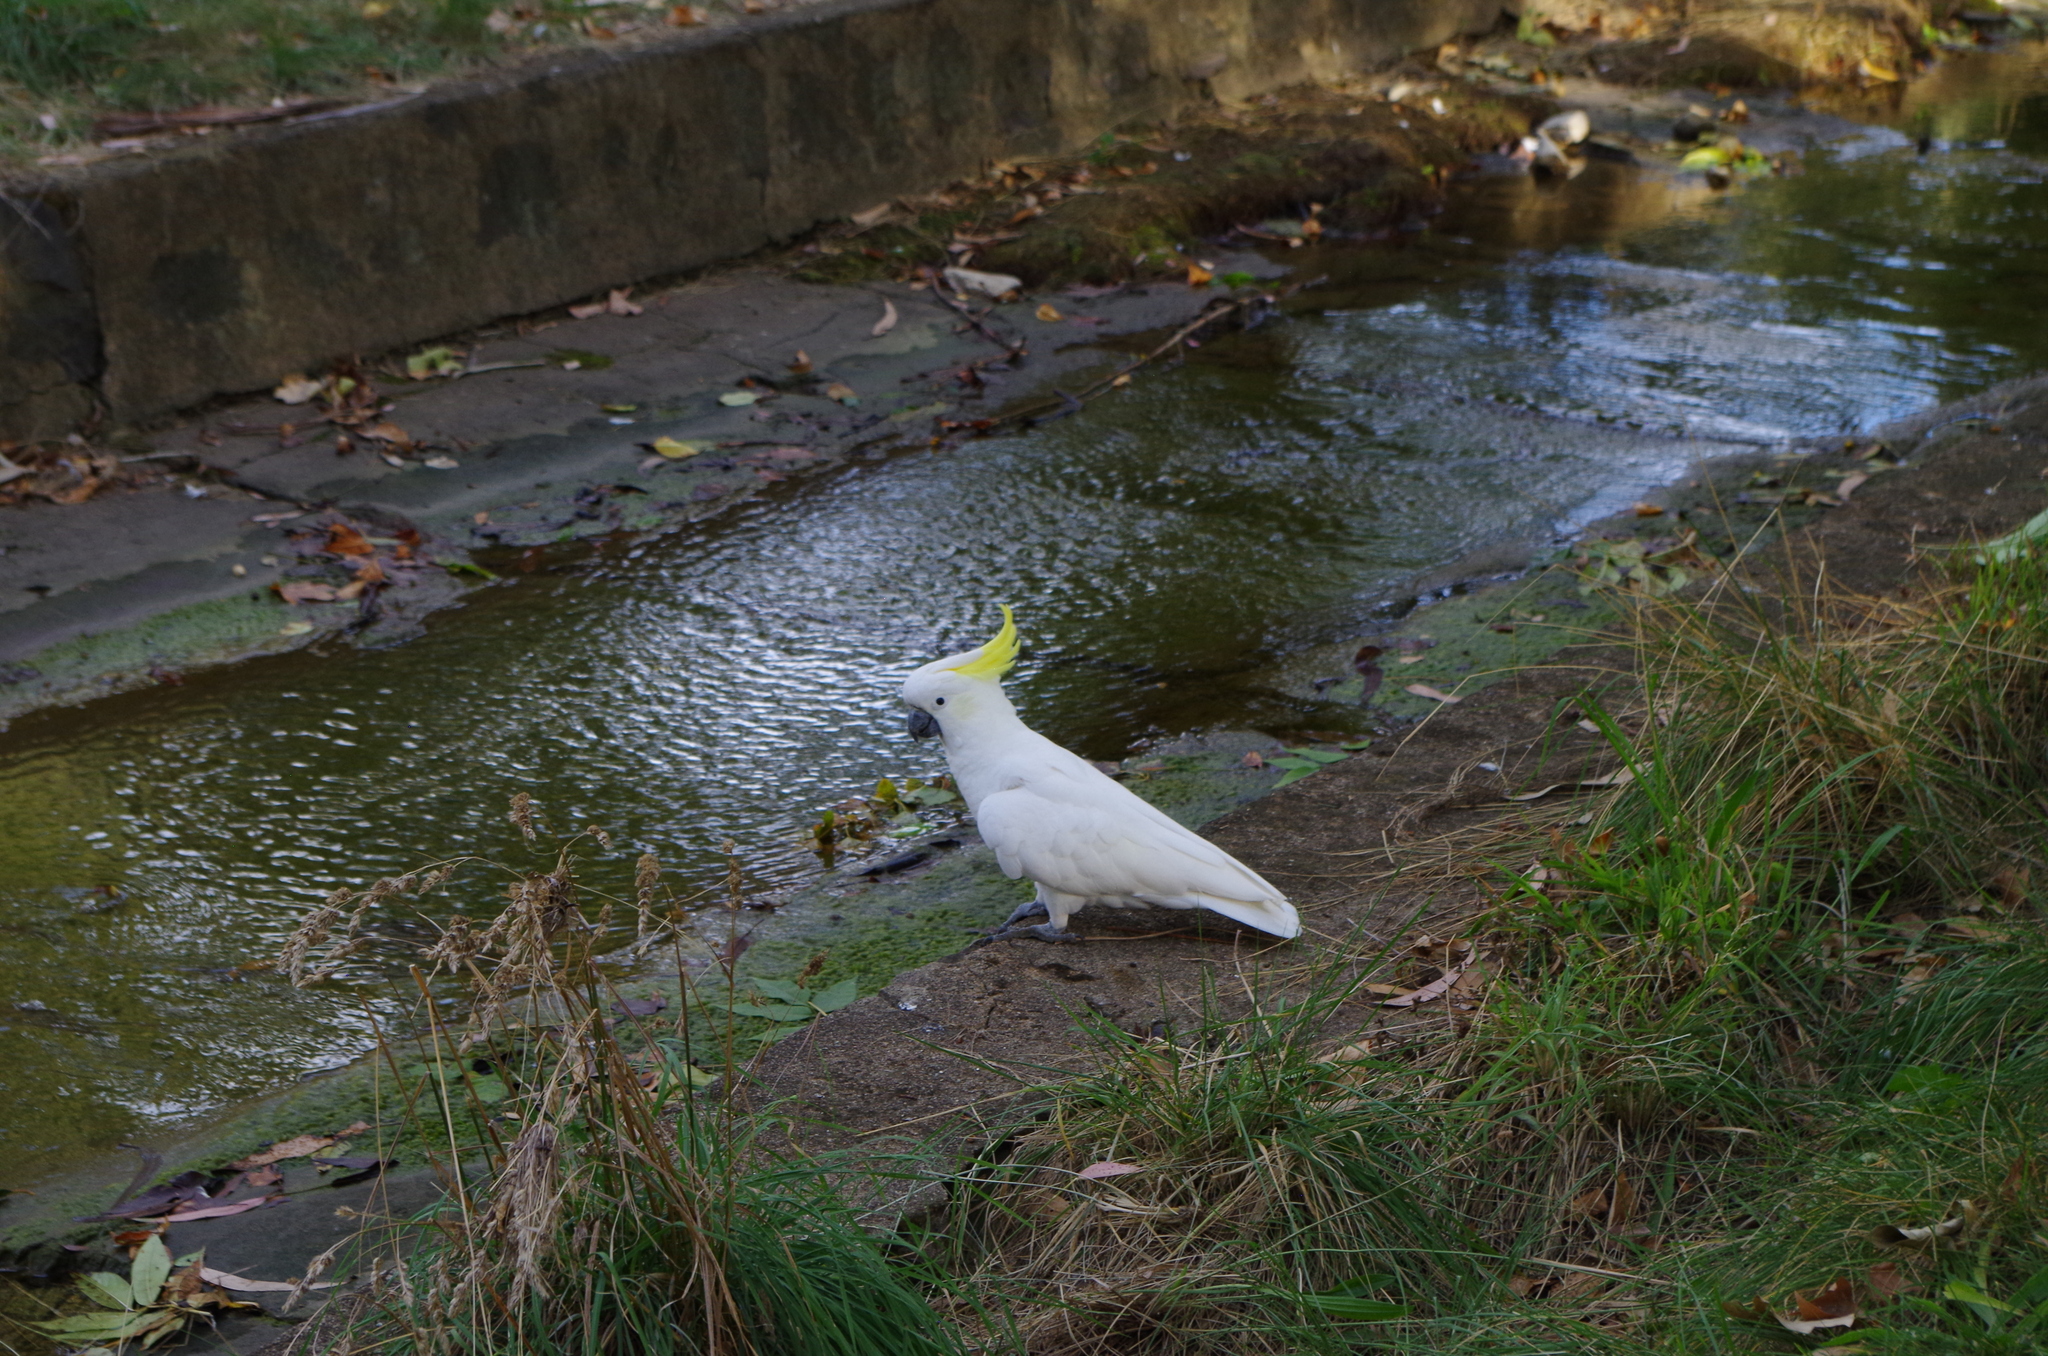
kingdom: Animalia
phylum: Chordata
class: Aves
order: Psittaciformes
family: Psittacidae
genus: Cacatua
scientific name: Cacatua galerita
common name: Sulphur-crested cockatoo
